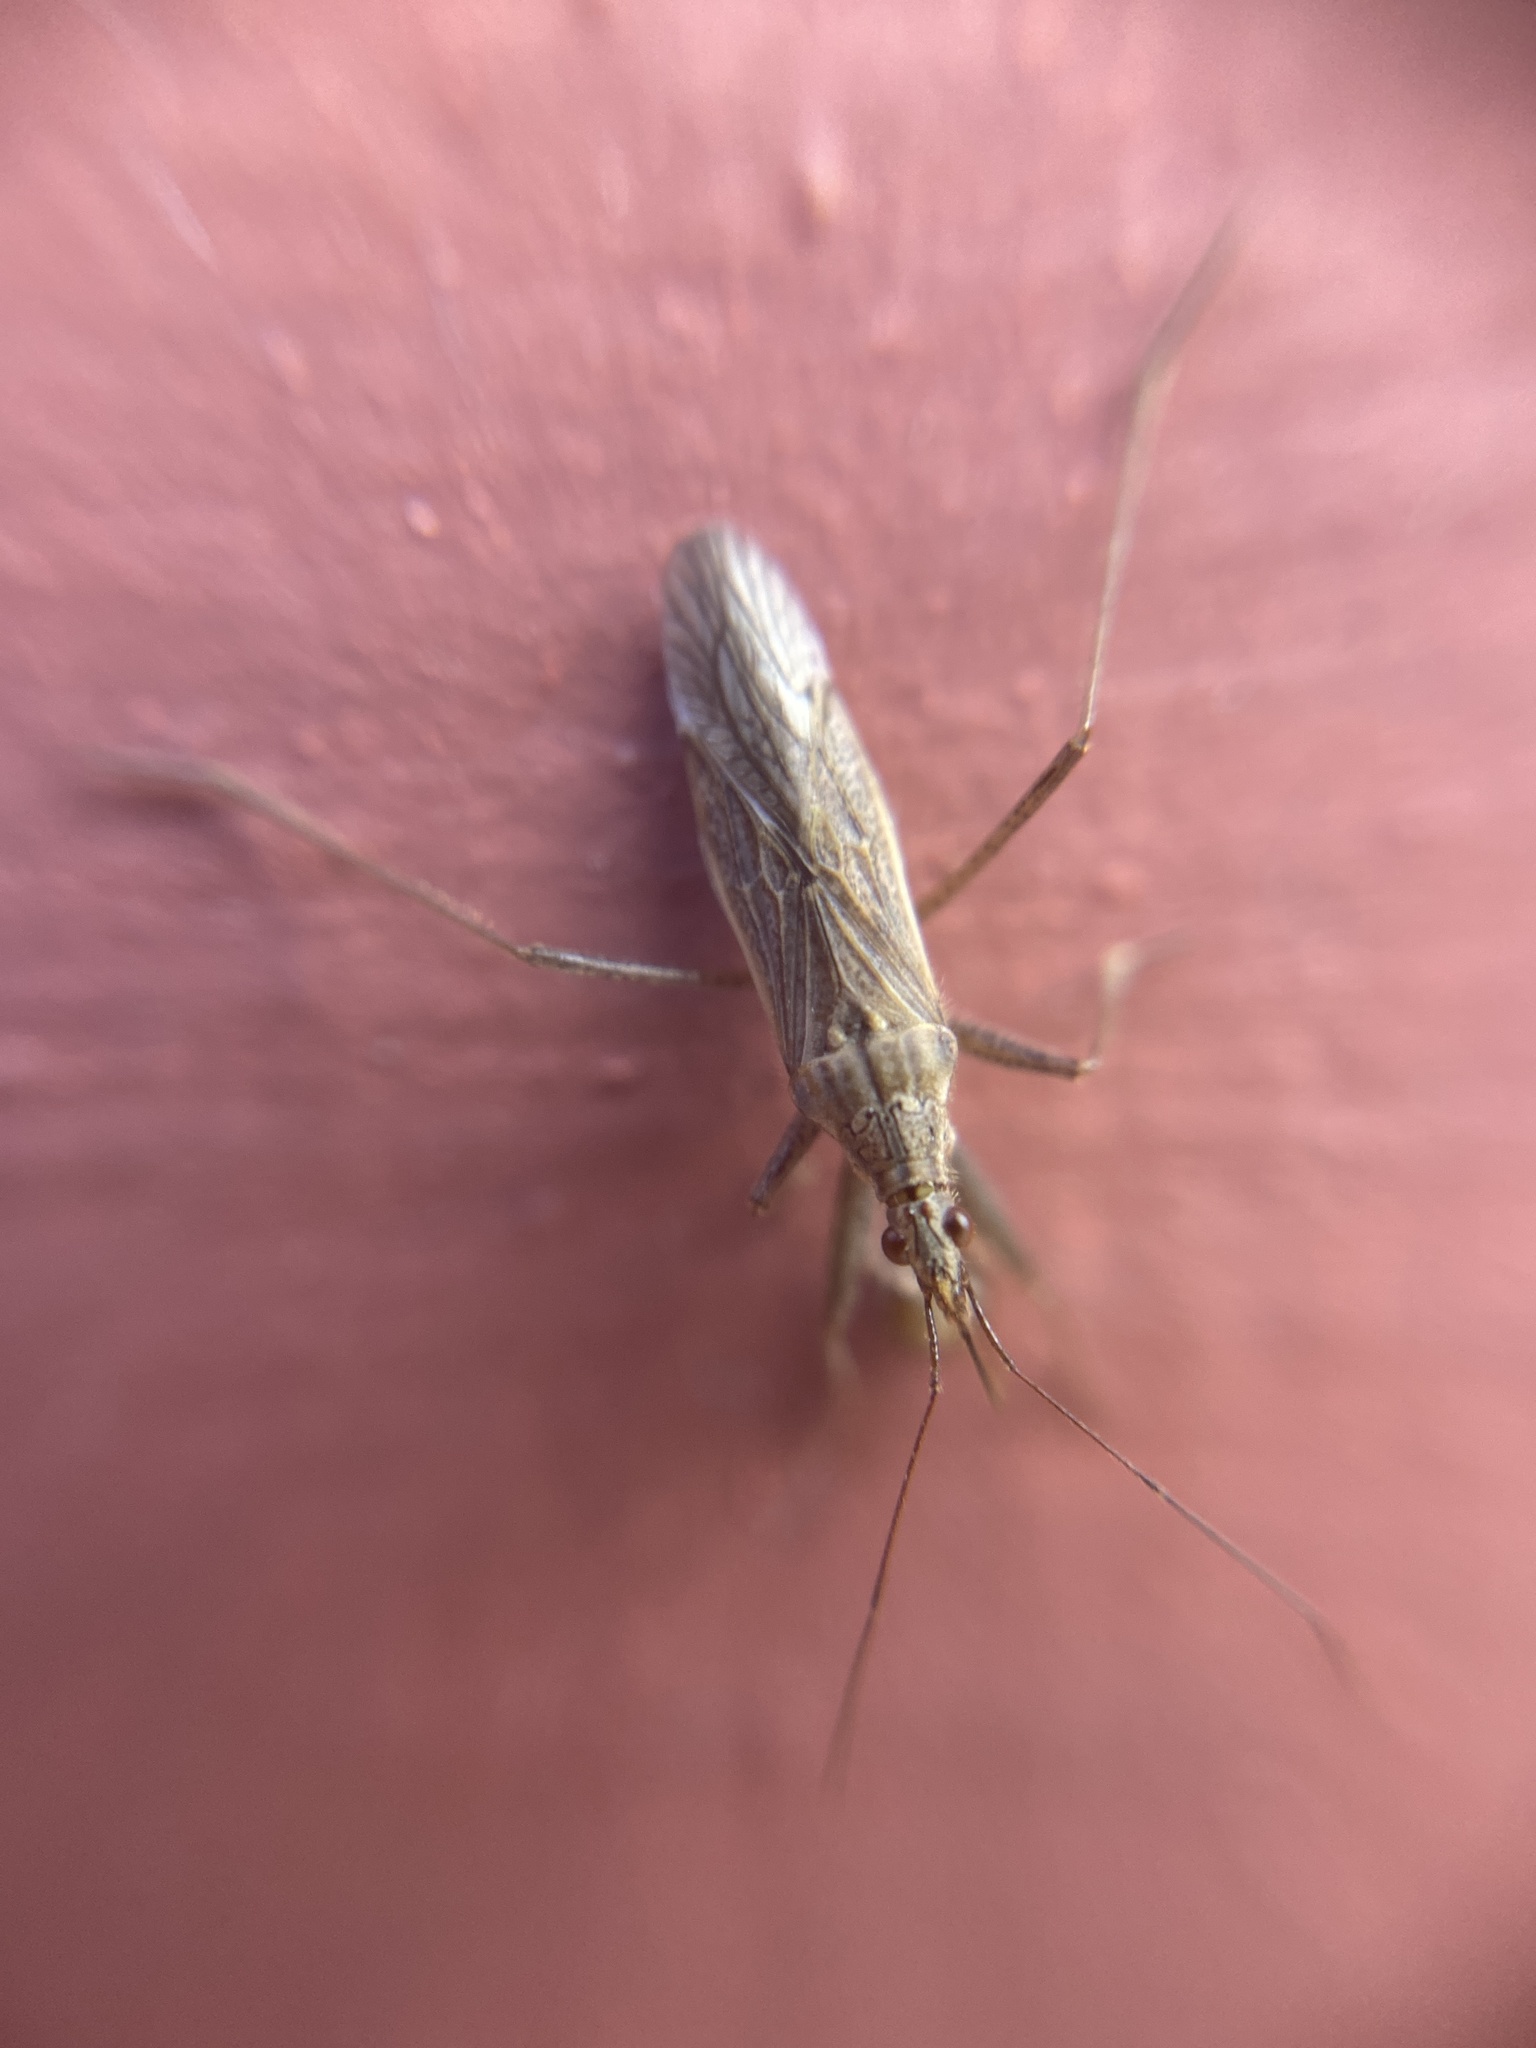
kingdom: Animalia
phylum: Arthropoda
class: Insecta
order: Hemiptera
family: Nabidae
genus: Nabis
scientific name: Nabis
